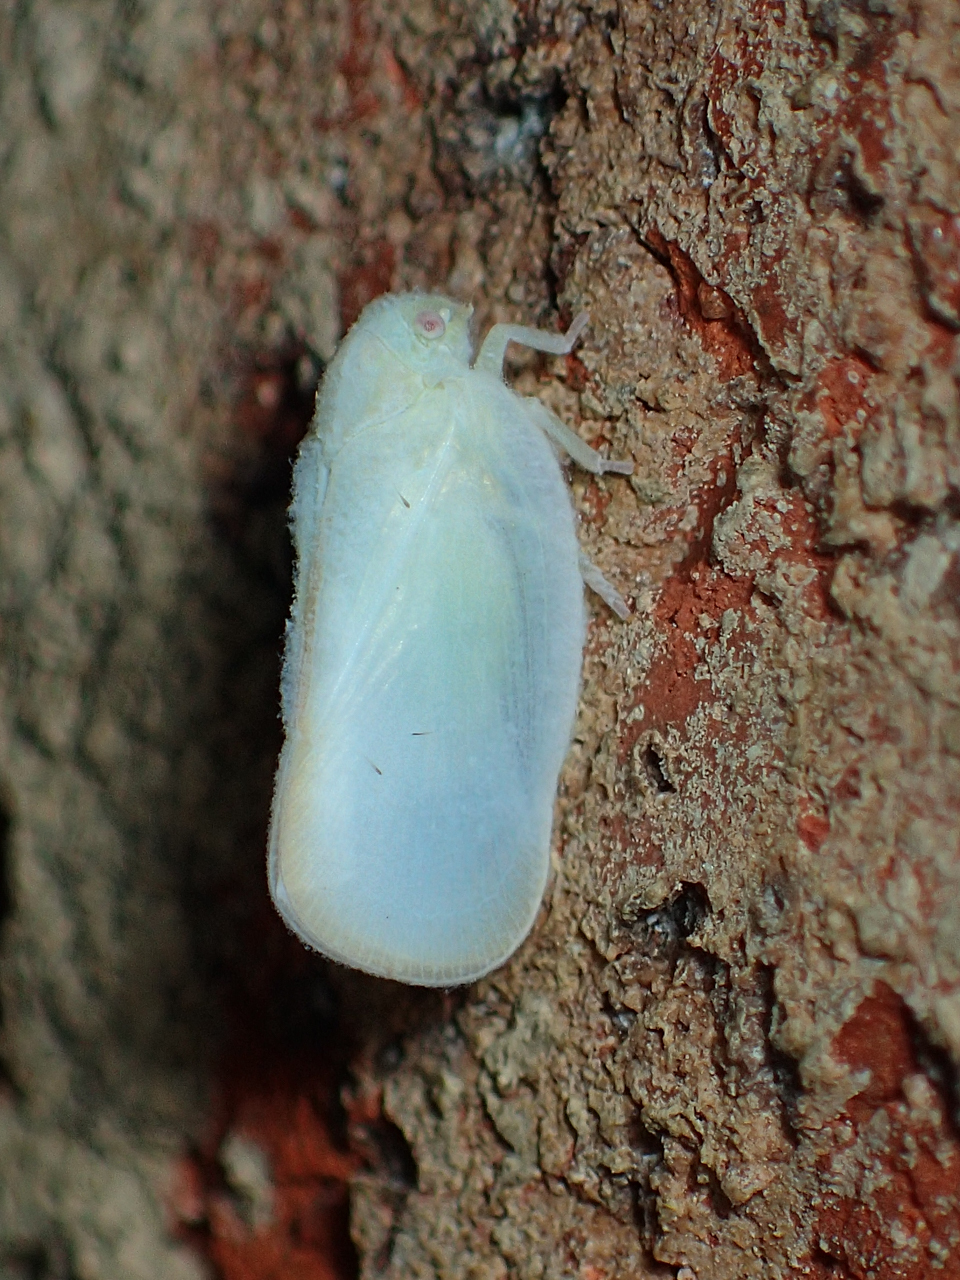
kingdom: Animalia
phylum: Arthropoda
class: Insecta
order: Hemiptera
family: Flatidae
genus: Ormenoides
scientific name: Ormenoides venusta
